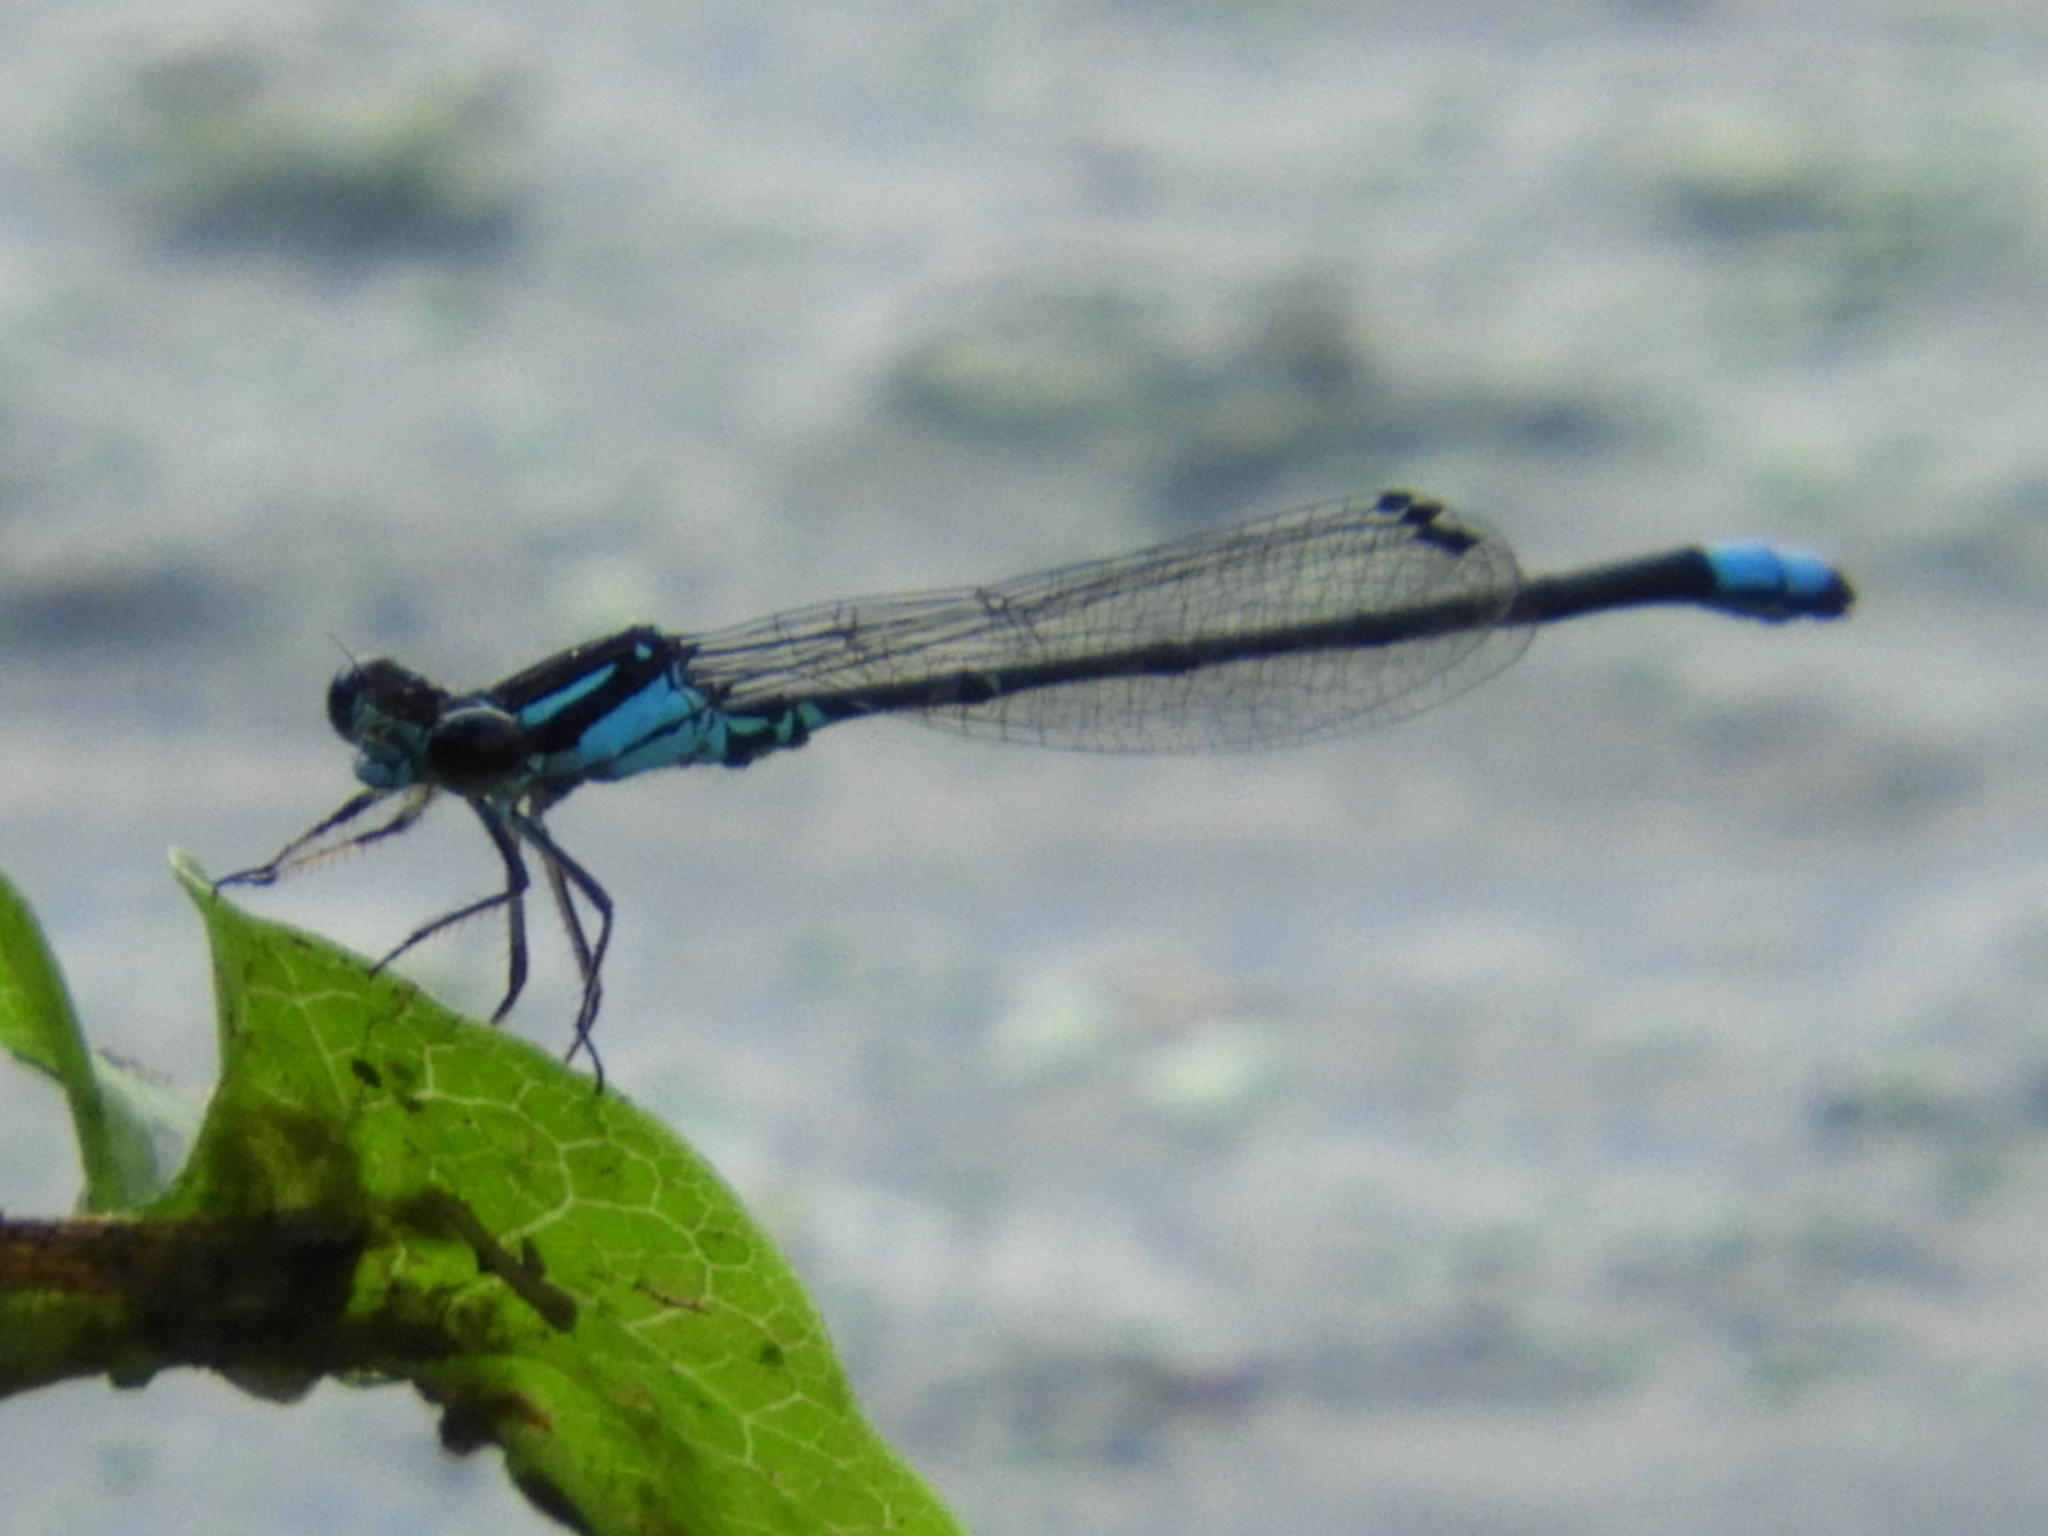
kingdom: Animalia
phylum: Arthropoda
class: Insecta
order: Odonata
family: Coenagrionidae
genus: Enallagma
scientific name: Enallagma geminatum
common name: Skimming bluet
